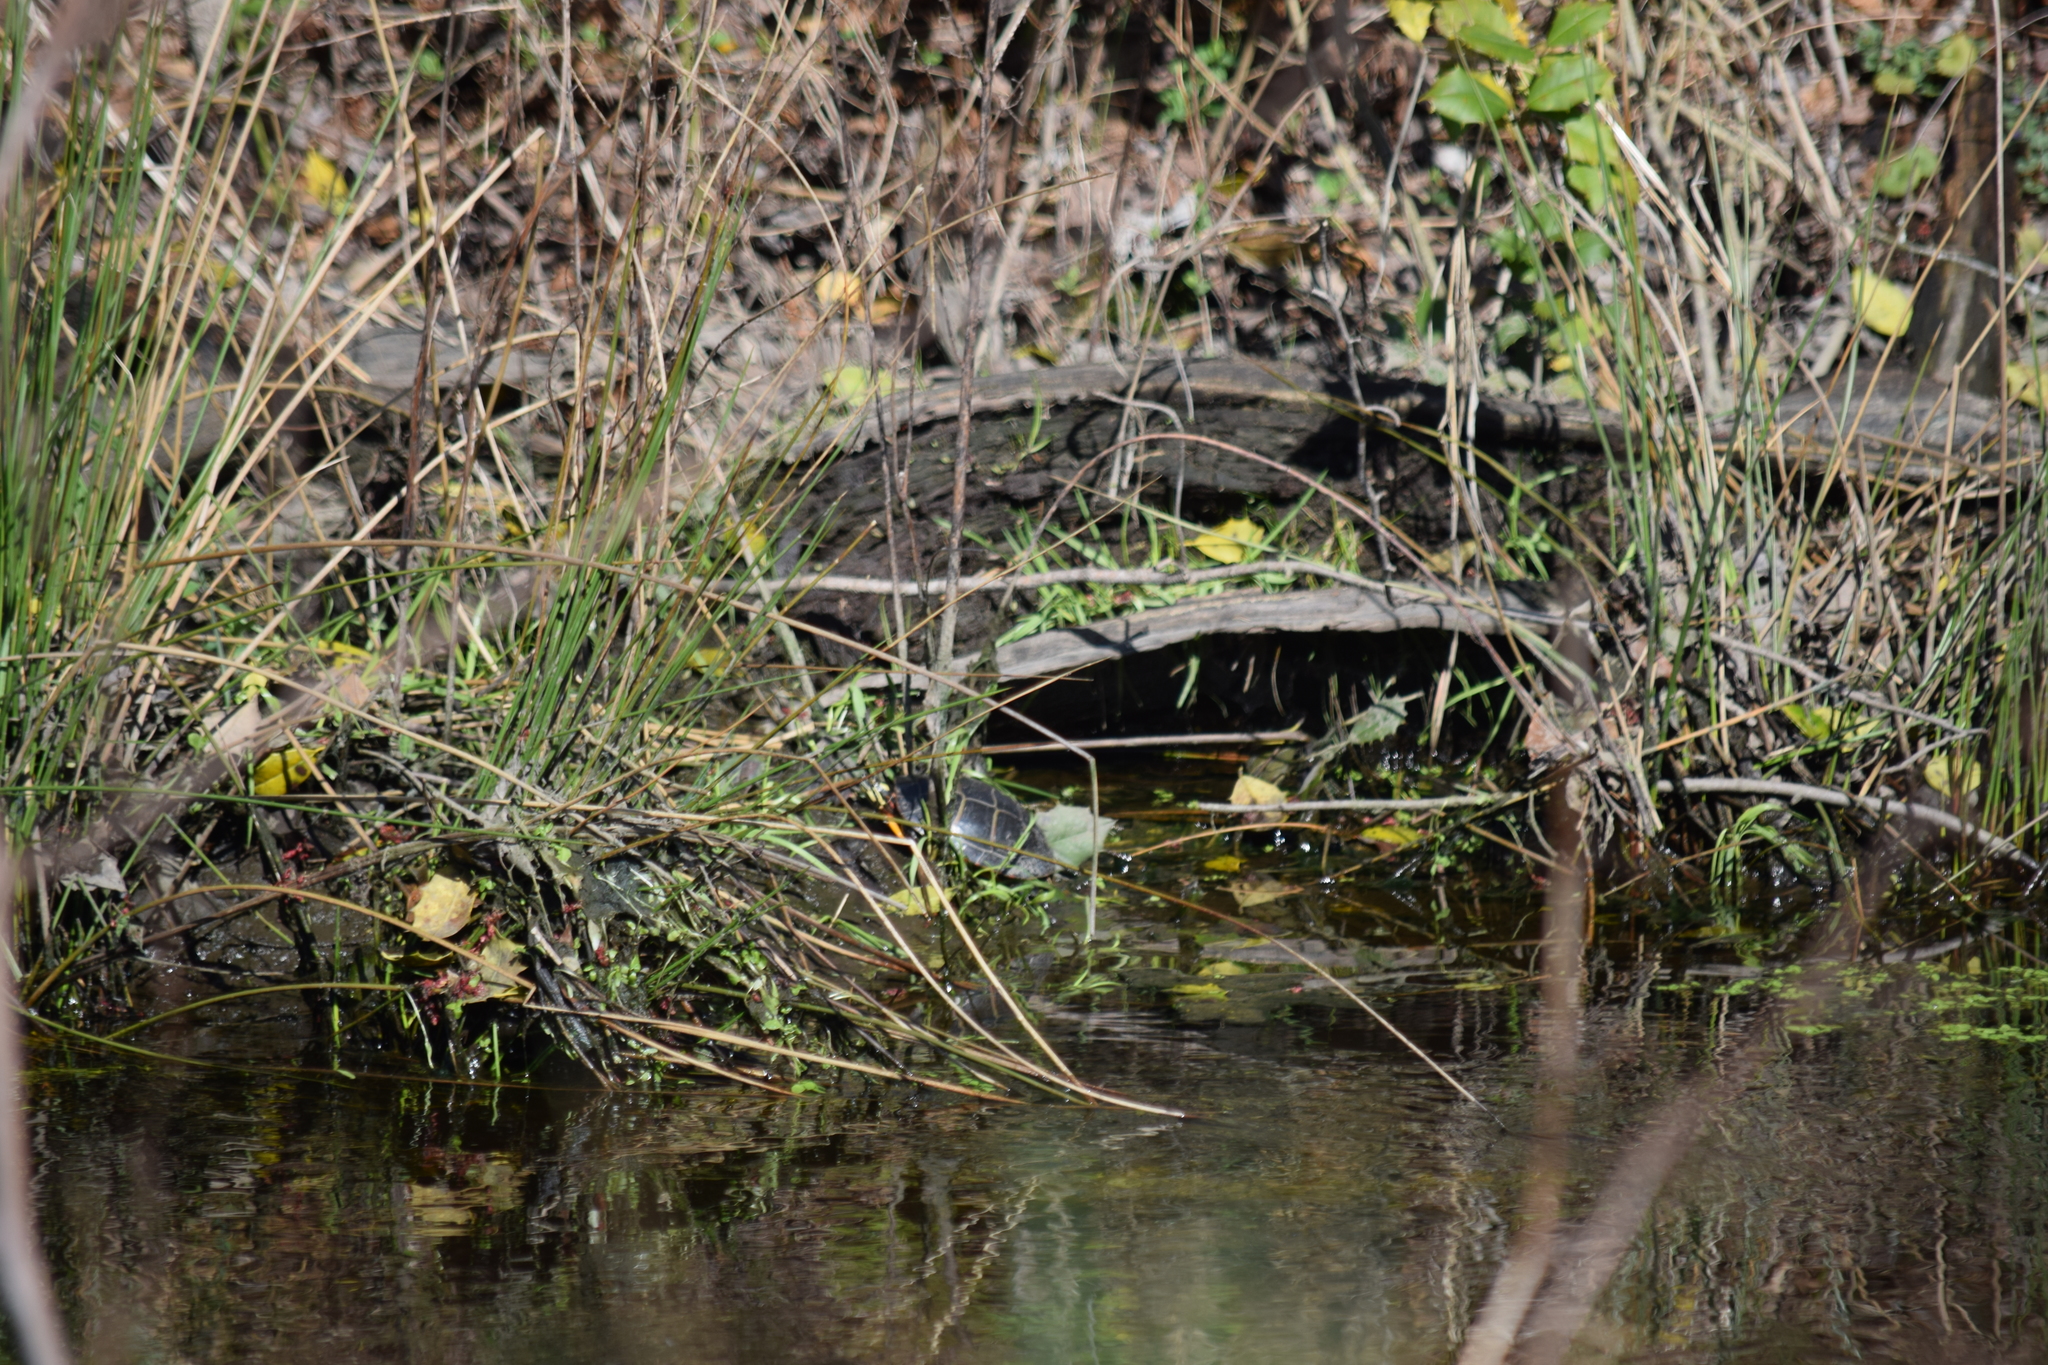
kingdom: Animalia
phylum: Chordata
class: Testudines
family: Emydidae
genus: Chrysemys
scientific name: Chrysemys picta
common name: Painted turtle
